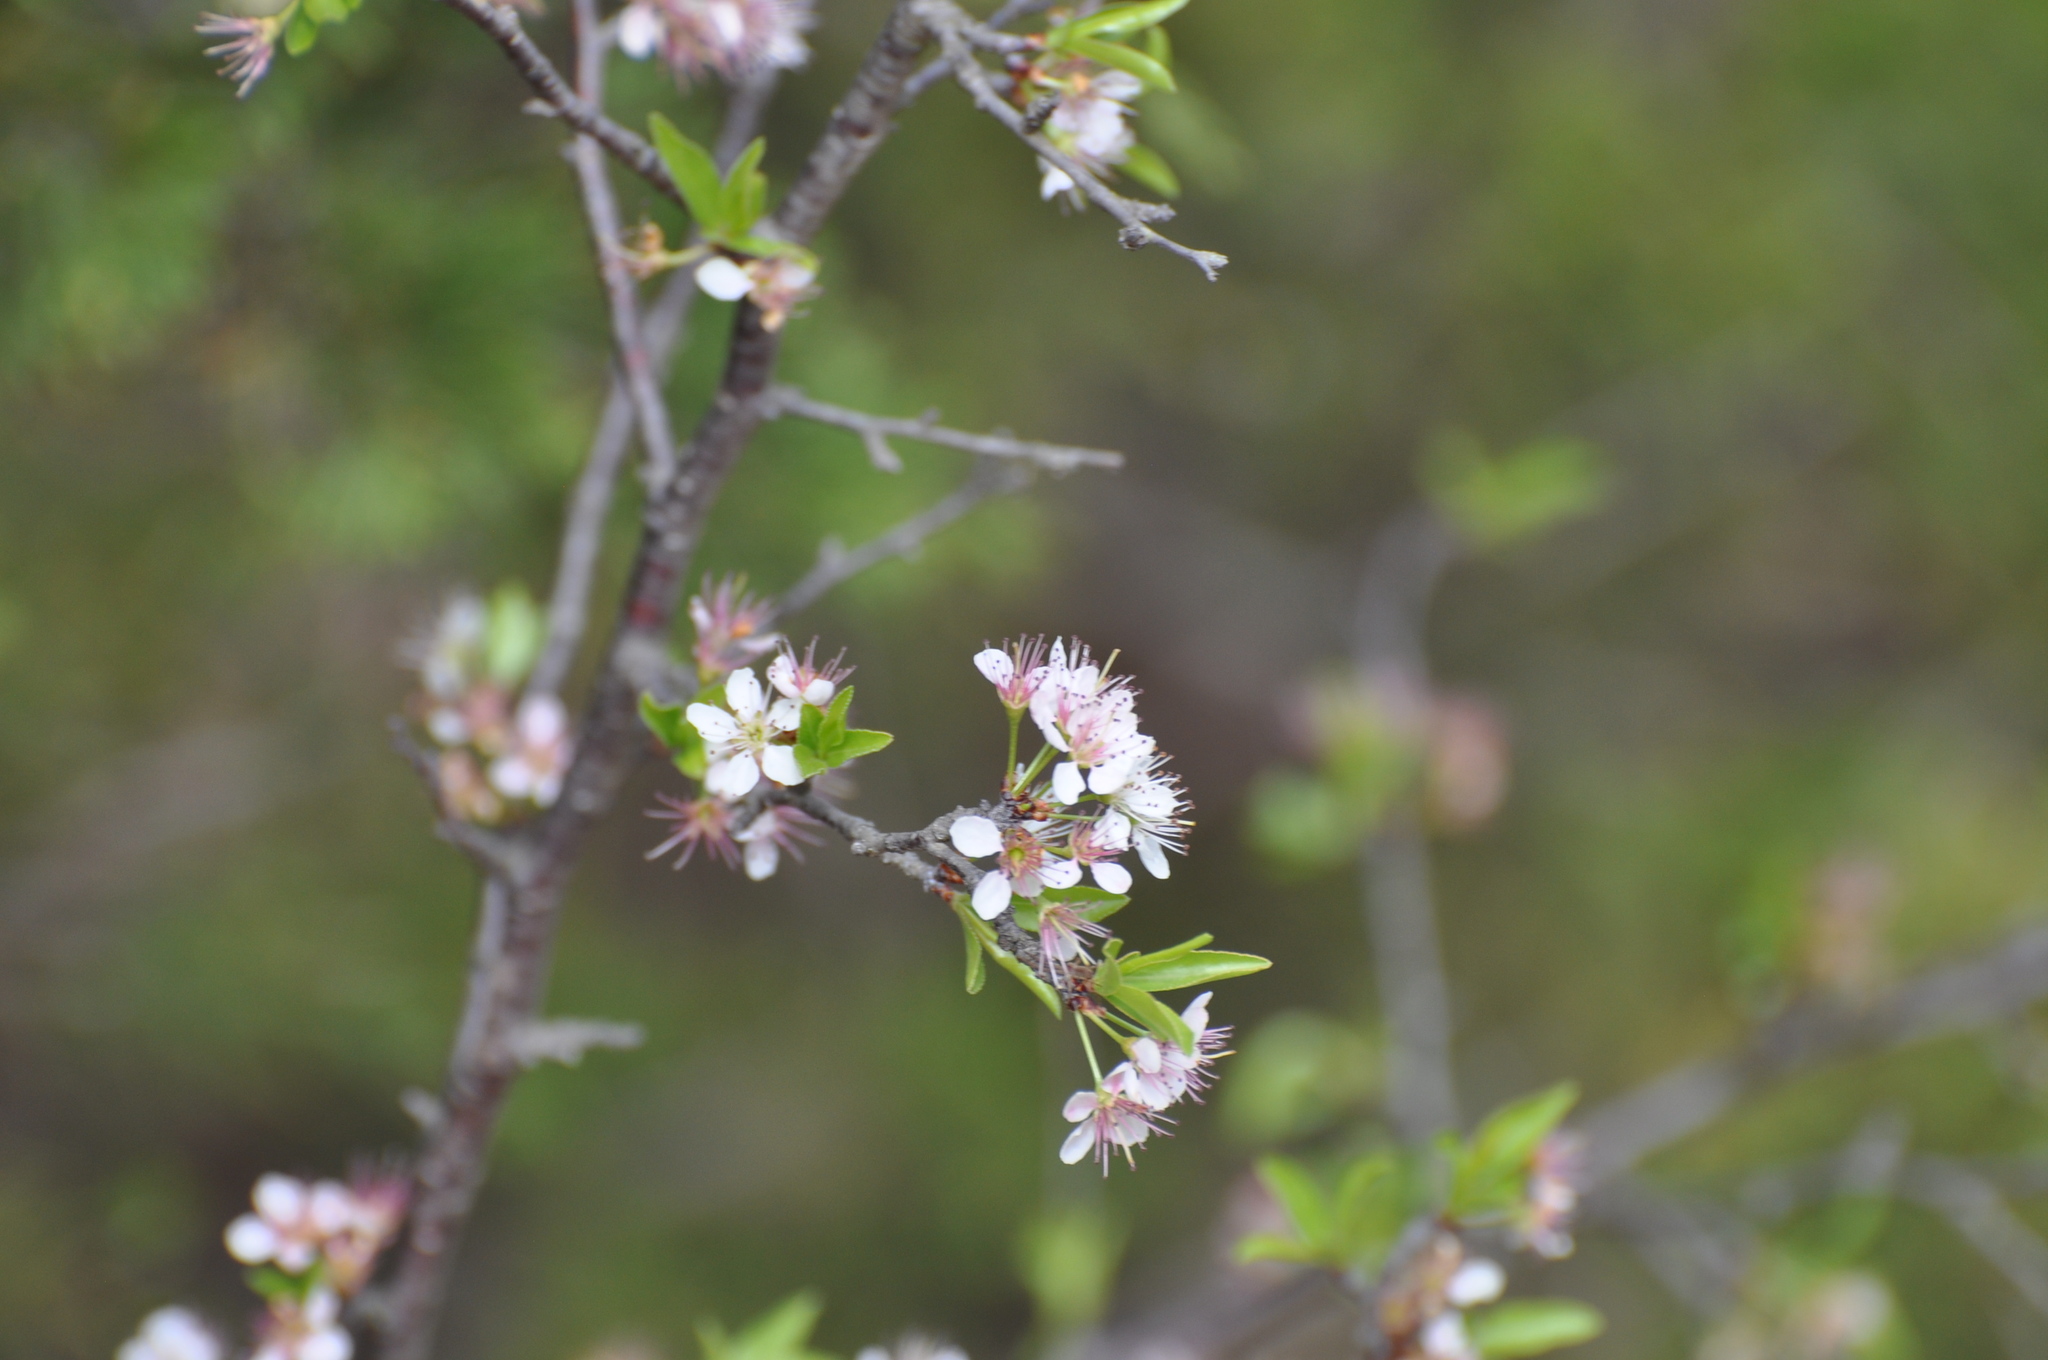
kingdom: Plantae
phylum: Tracheophyta
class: Magnoliopsida
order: Rosales
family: Rosaceae
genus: Prunus
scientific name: Prunus angustifolia
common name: Cherokee plum
